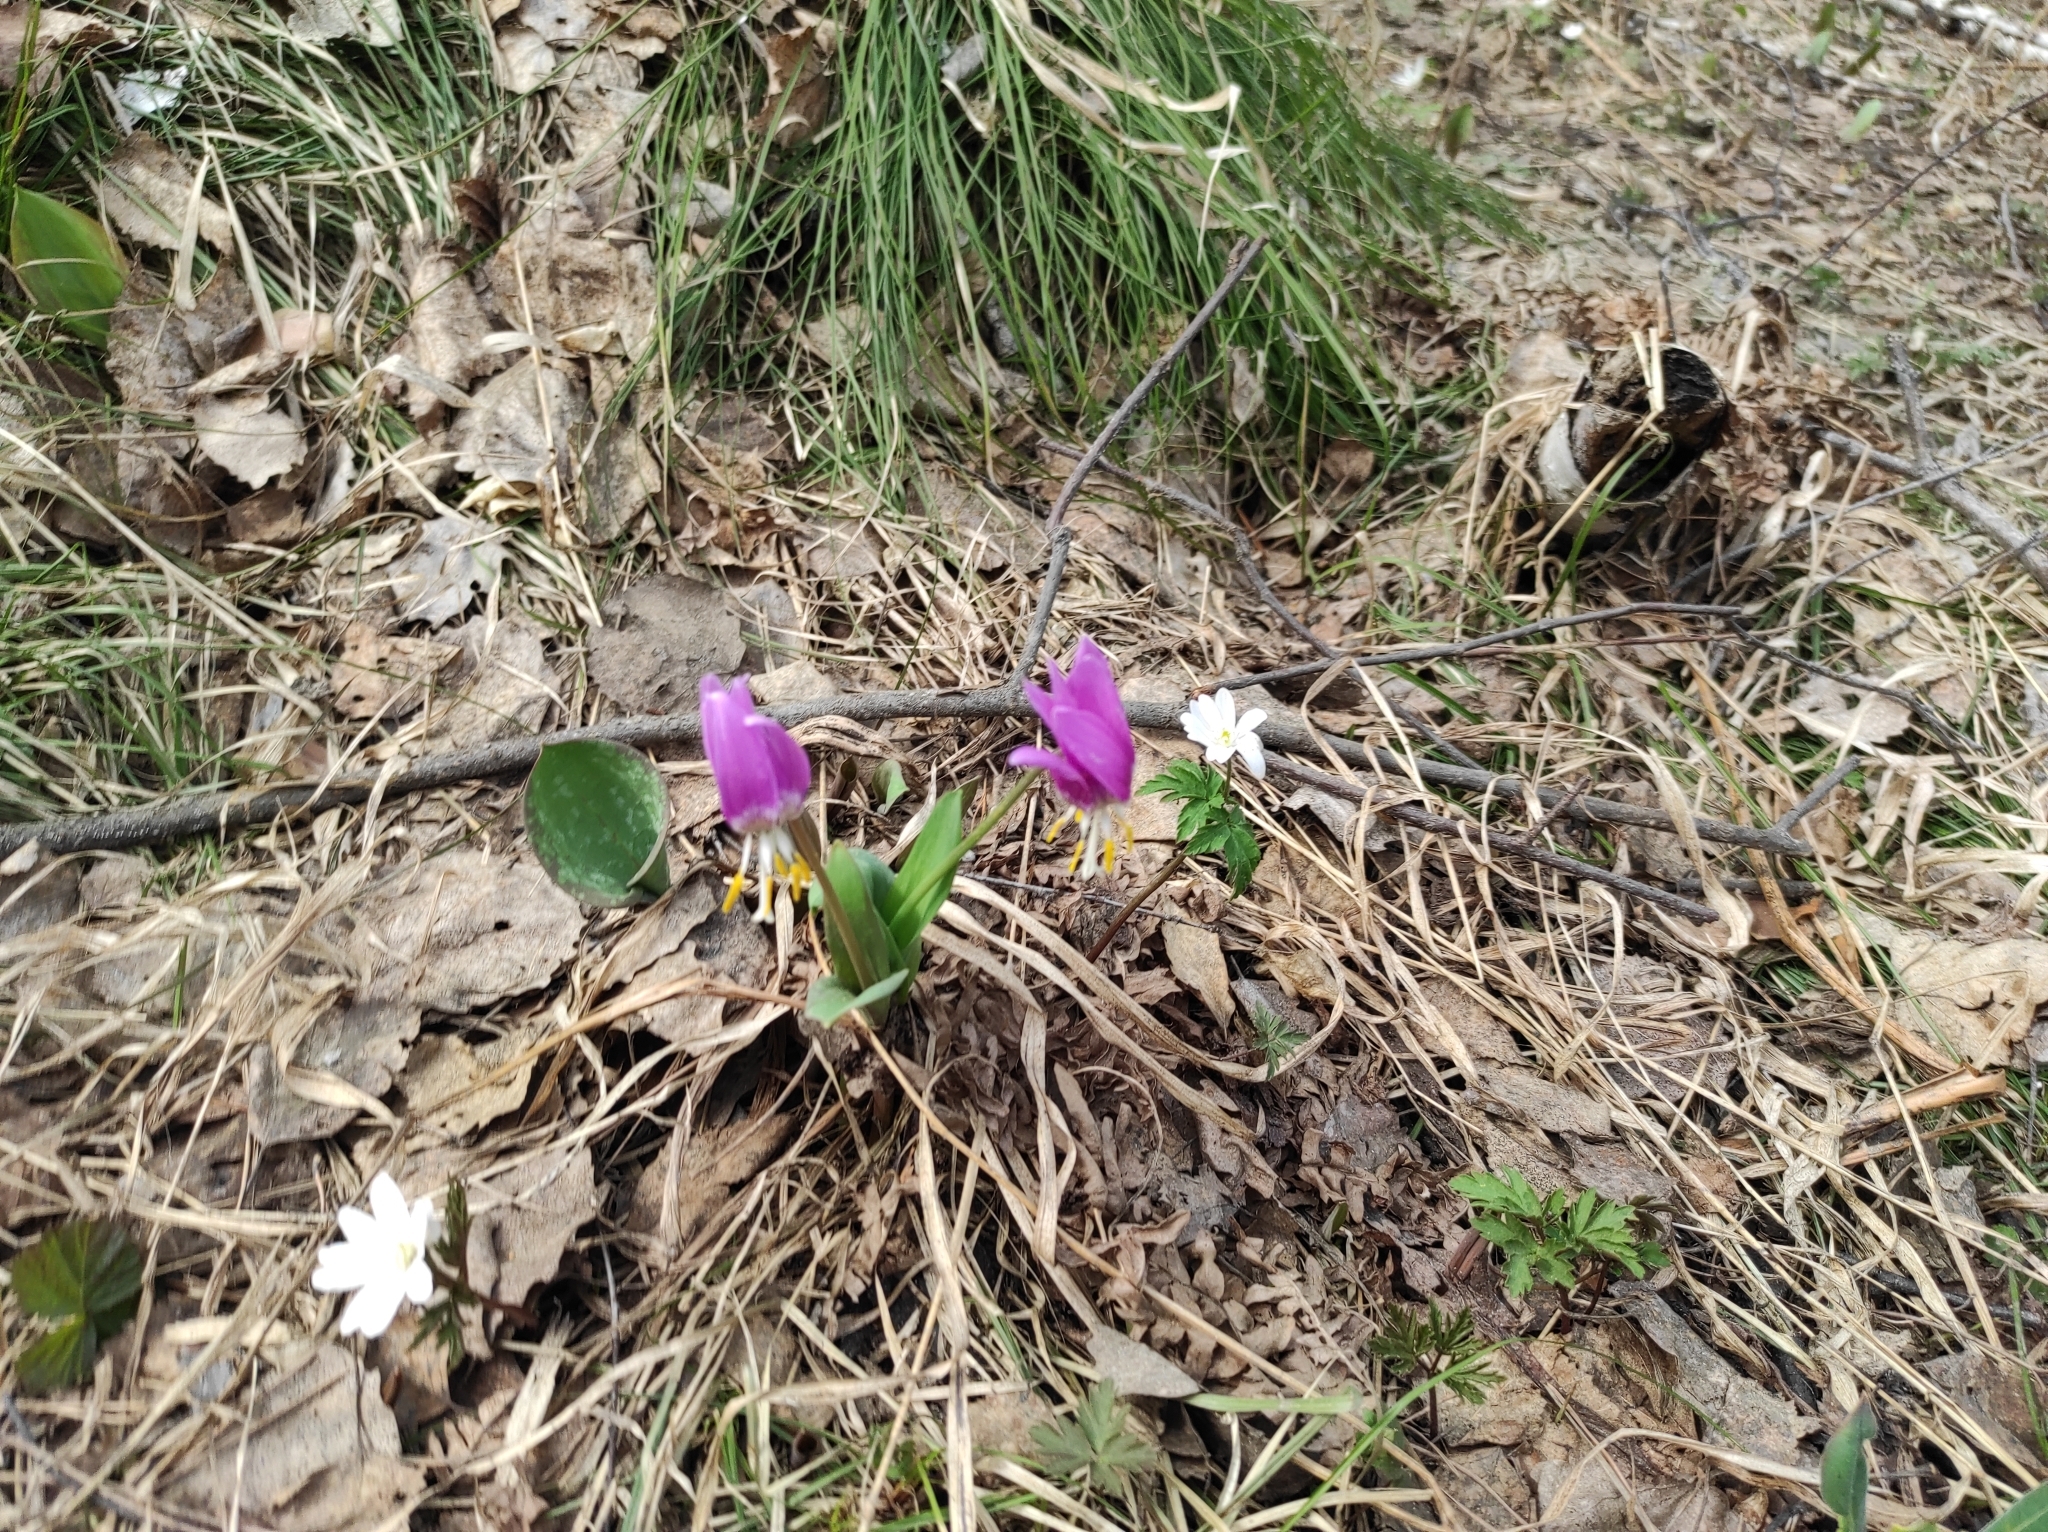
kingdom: Plantae
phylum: Tracheophyta
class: Magnoliopsida
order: Ranunculales
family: Ranunculaceae
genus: Anemone
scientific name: Anemone altaica
